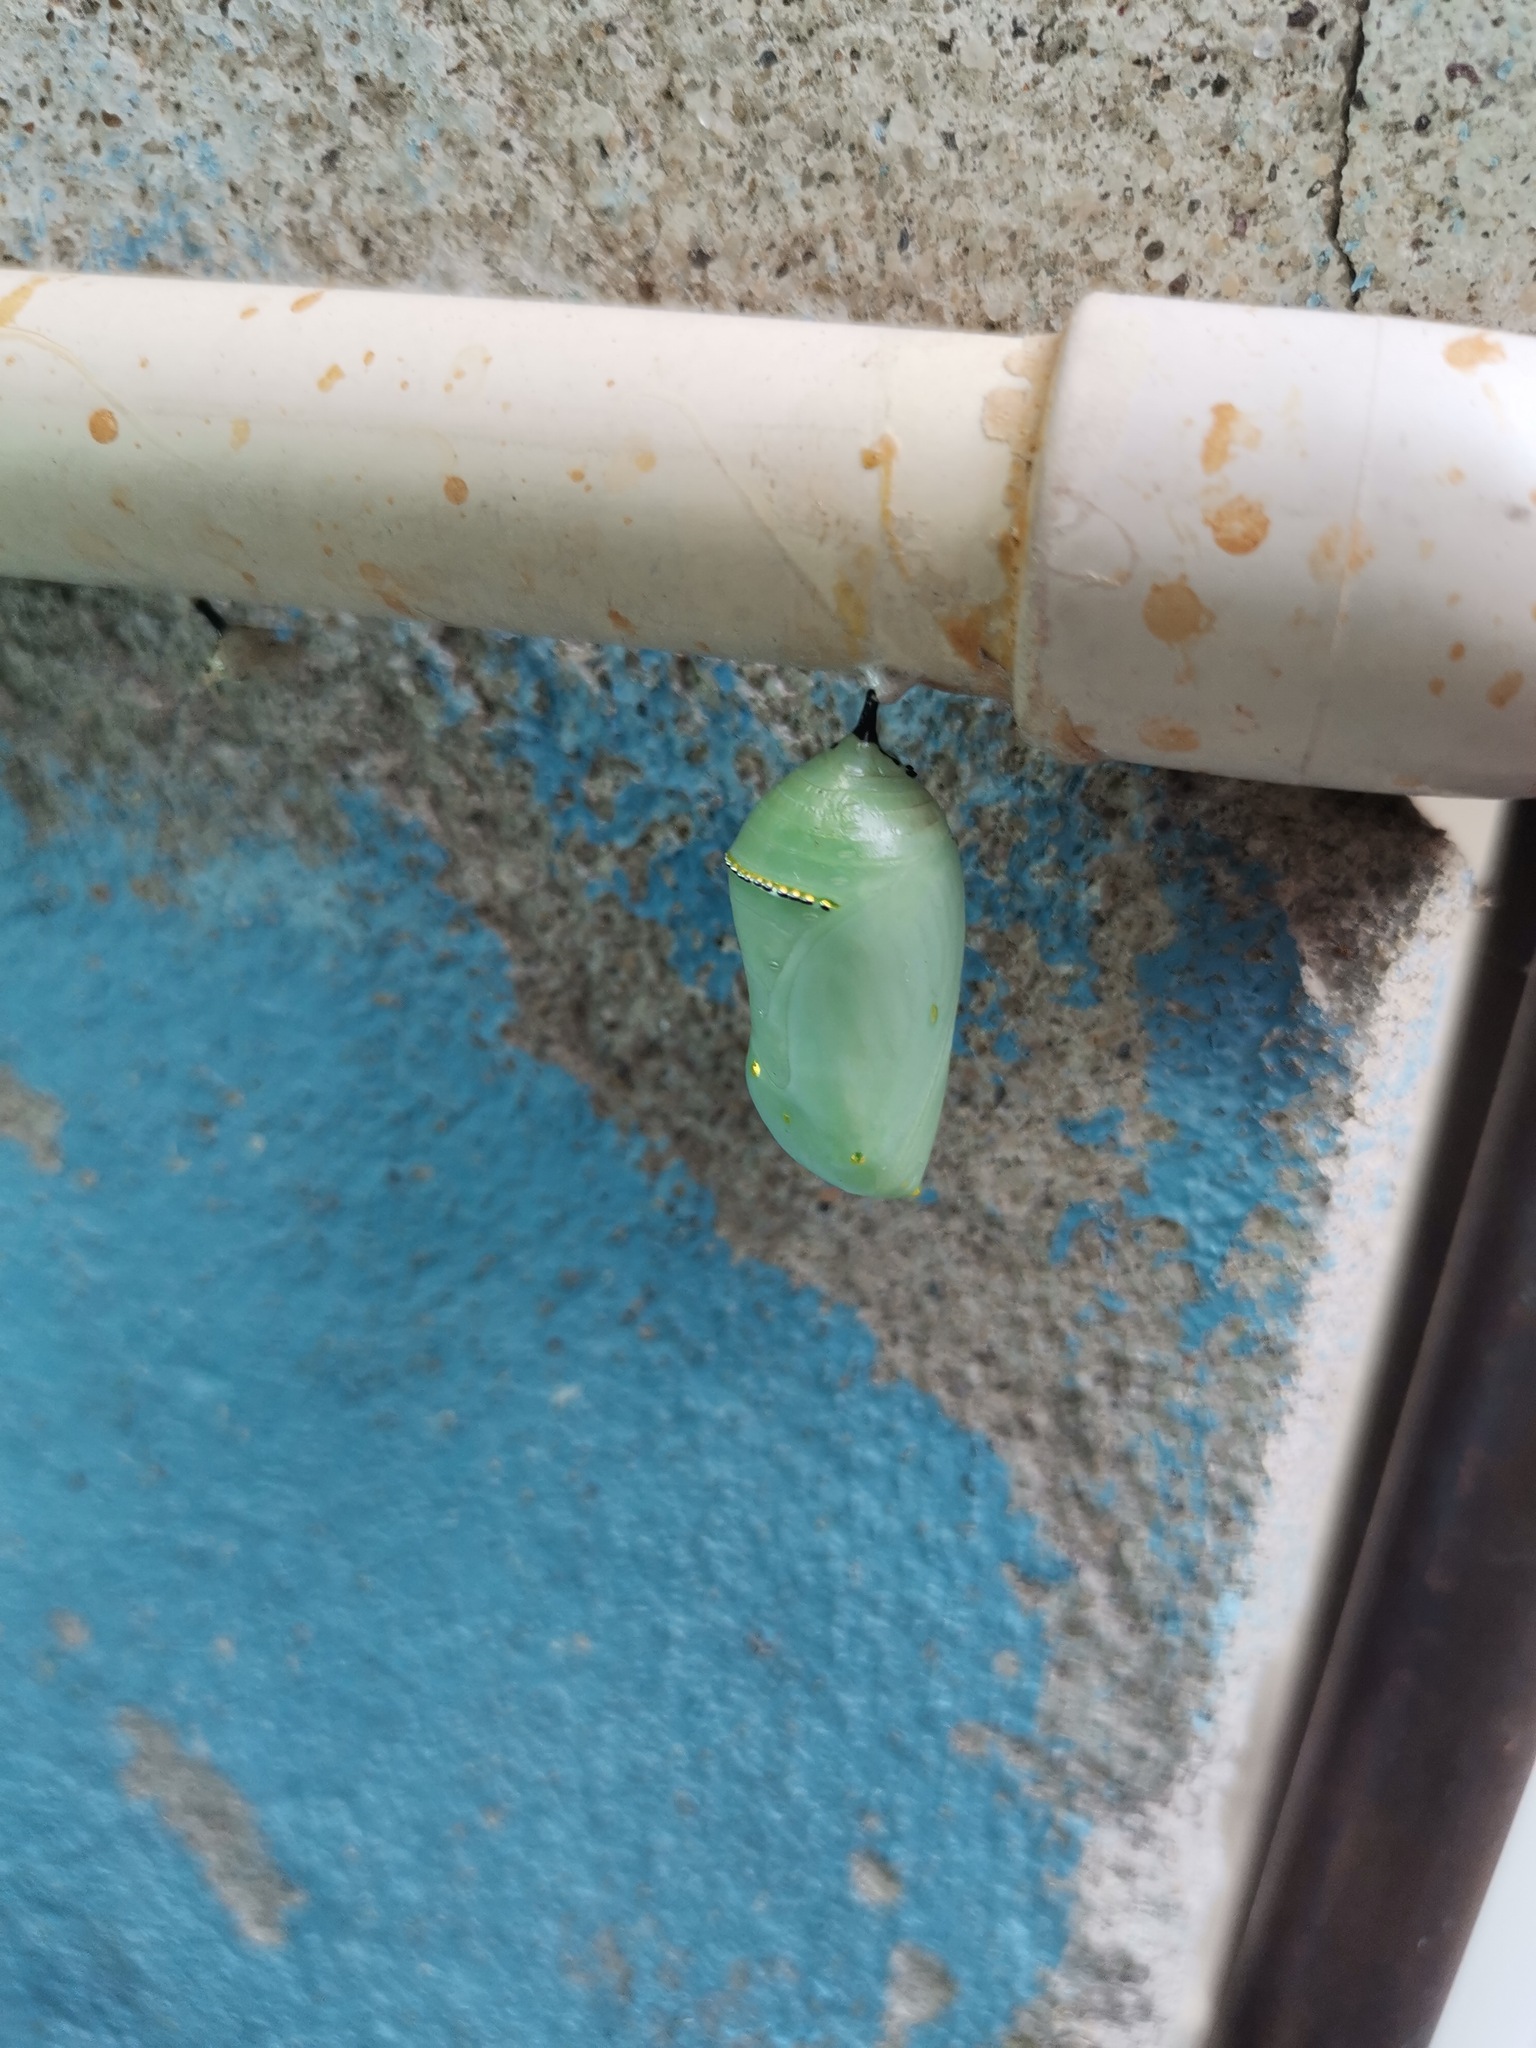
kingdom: Animalia
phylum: Arthropoda
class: Insecta
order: Lepidoptera
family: Nymphalidae
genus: Danaus
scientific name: Danaus plexippus
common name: Monarch
